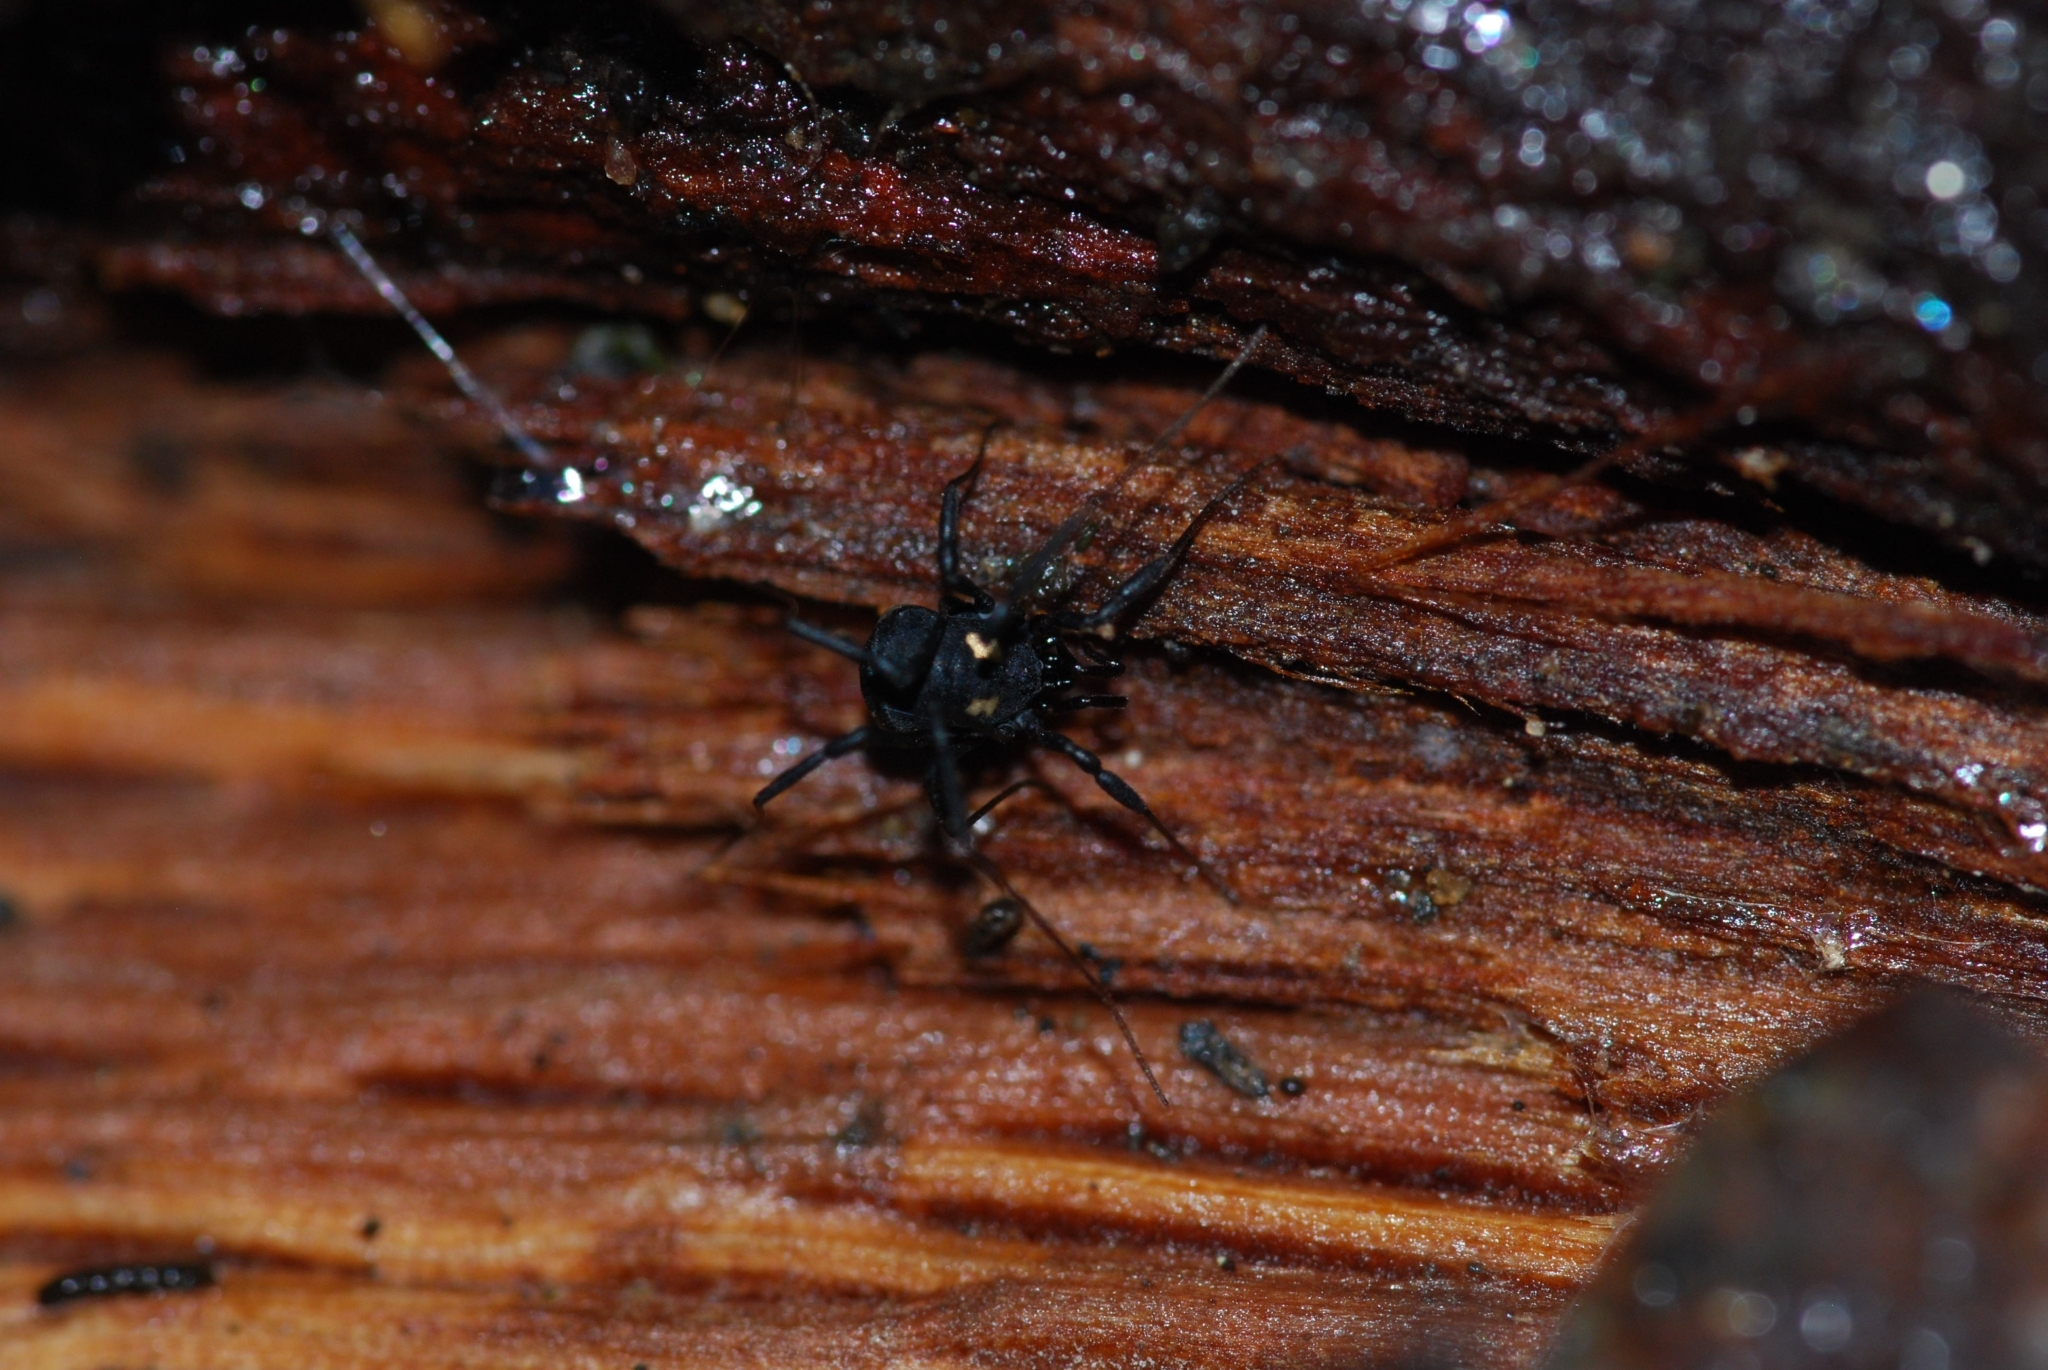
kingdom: Animalia
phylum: Arthropoda
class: Arachnida
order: Opiliones
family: Nemastomatidae
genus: Nemastoma
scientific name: Nemastoma bimaculatum
